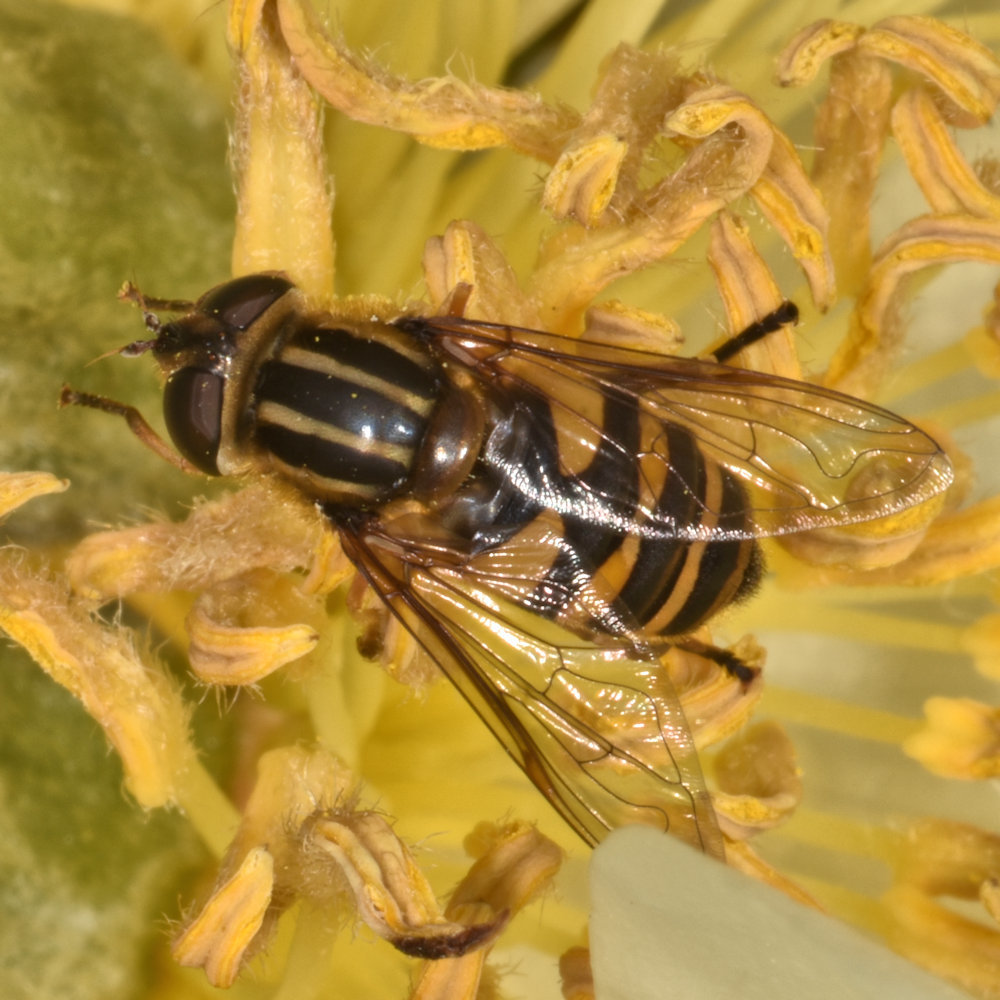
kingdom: Animalia
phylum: Arthropoda
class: Insecta
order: Diptera
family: Syrphidae
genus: Helophilus
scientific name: Helophilus fasciatus
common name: Narrow-headed marsh fly
